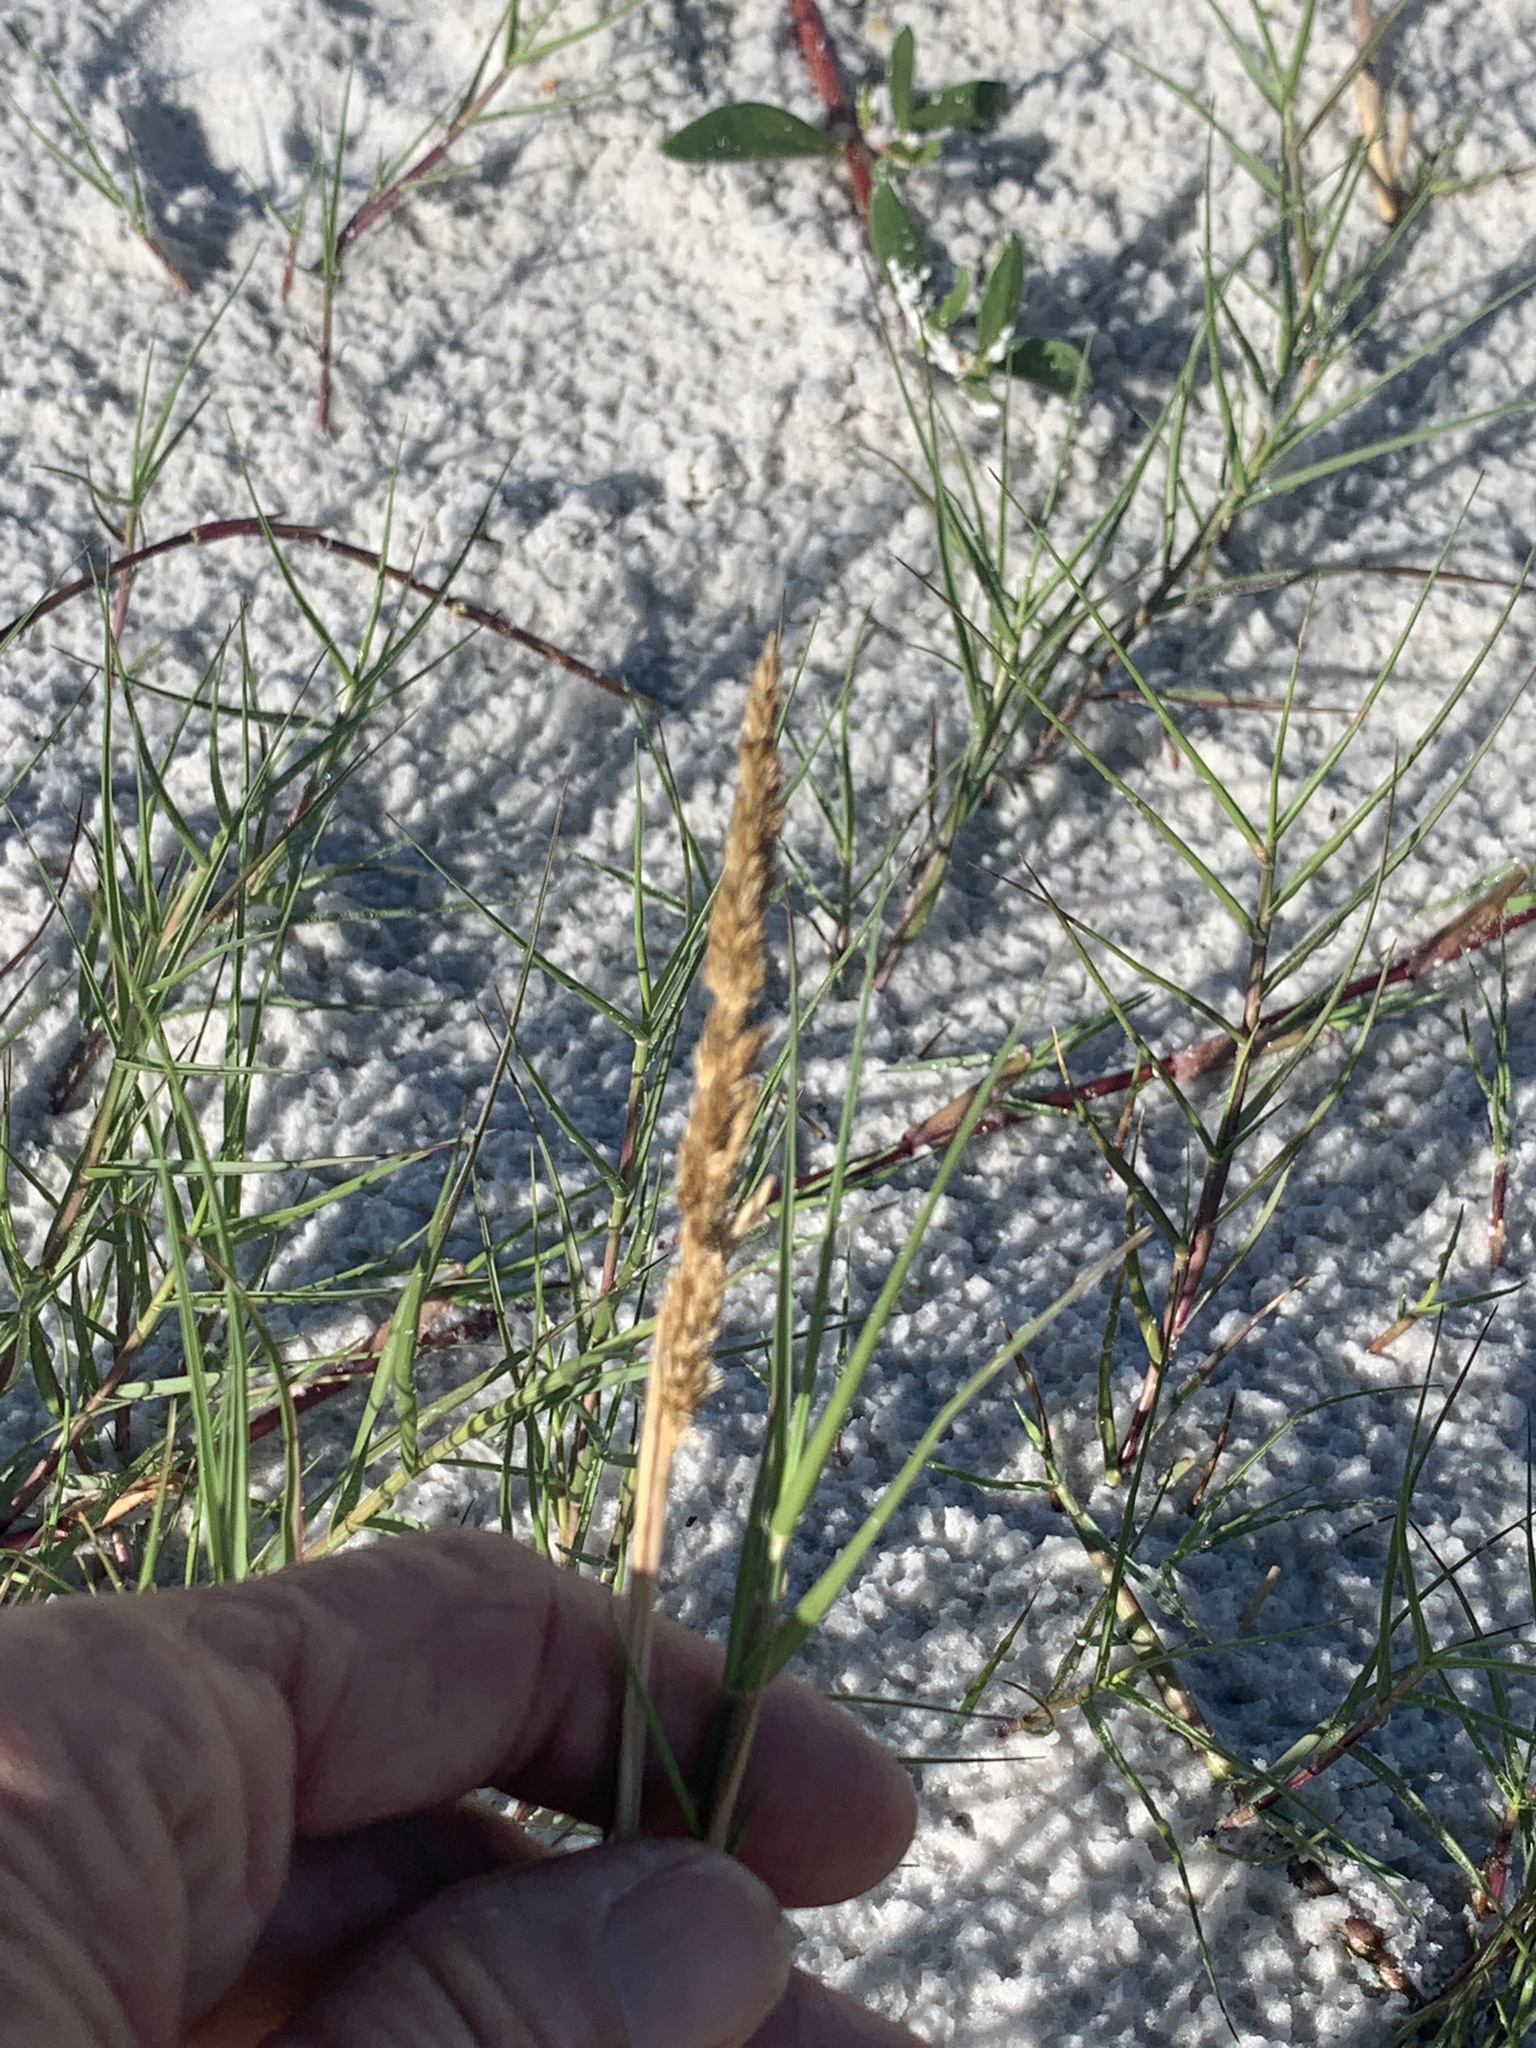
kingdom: Plantae
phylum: Tracheophyta
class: Liliopsida
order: Poales
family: Poaceae
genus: Sporobolus
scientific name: Sporobolus virginicus
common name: Beach dropseed
